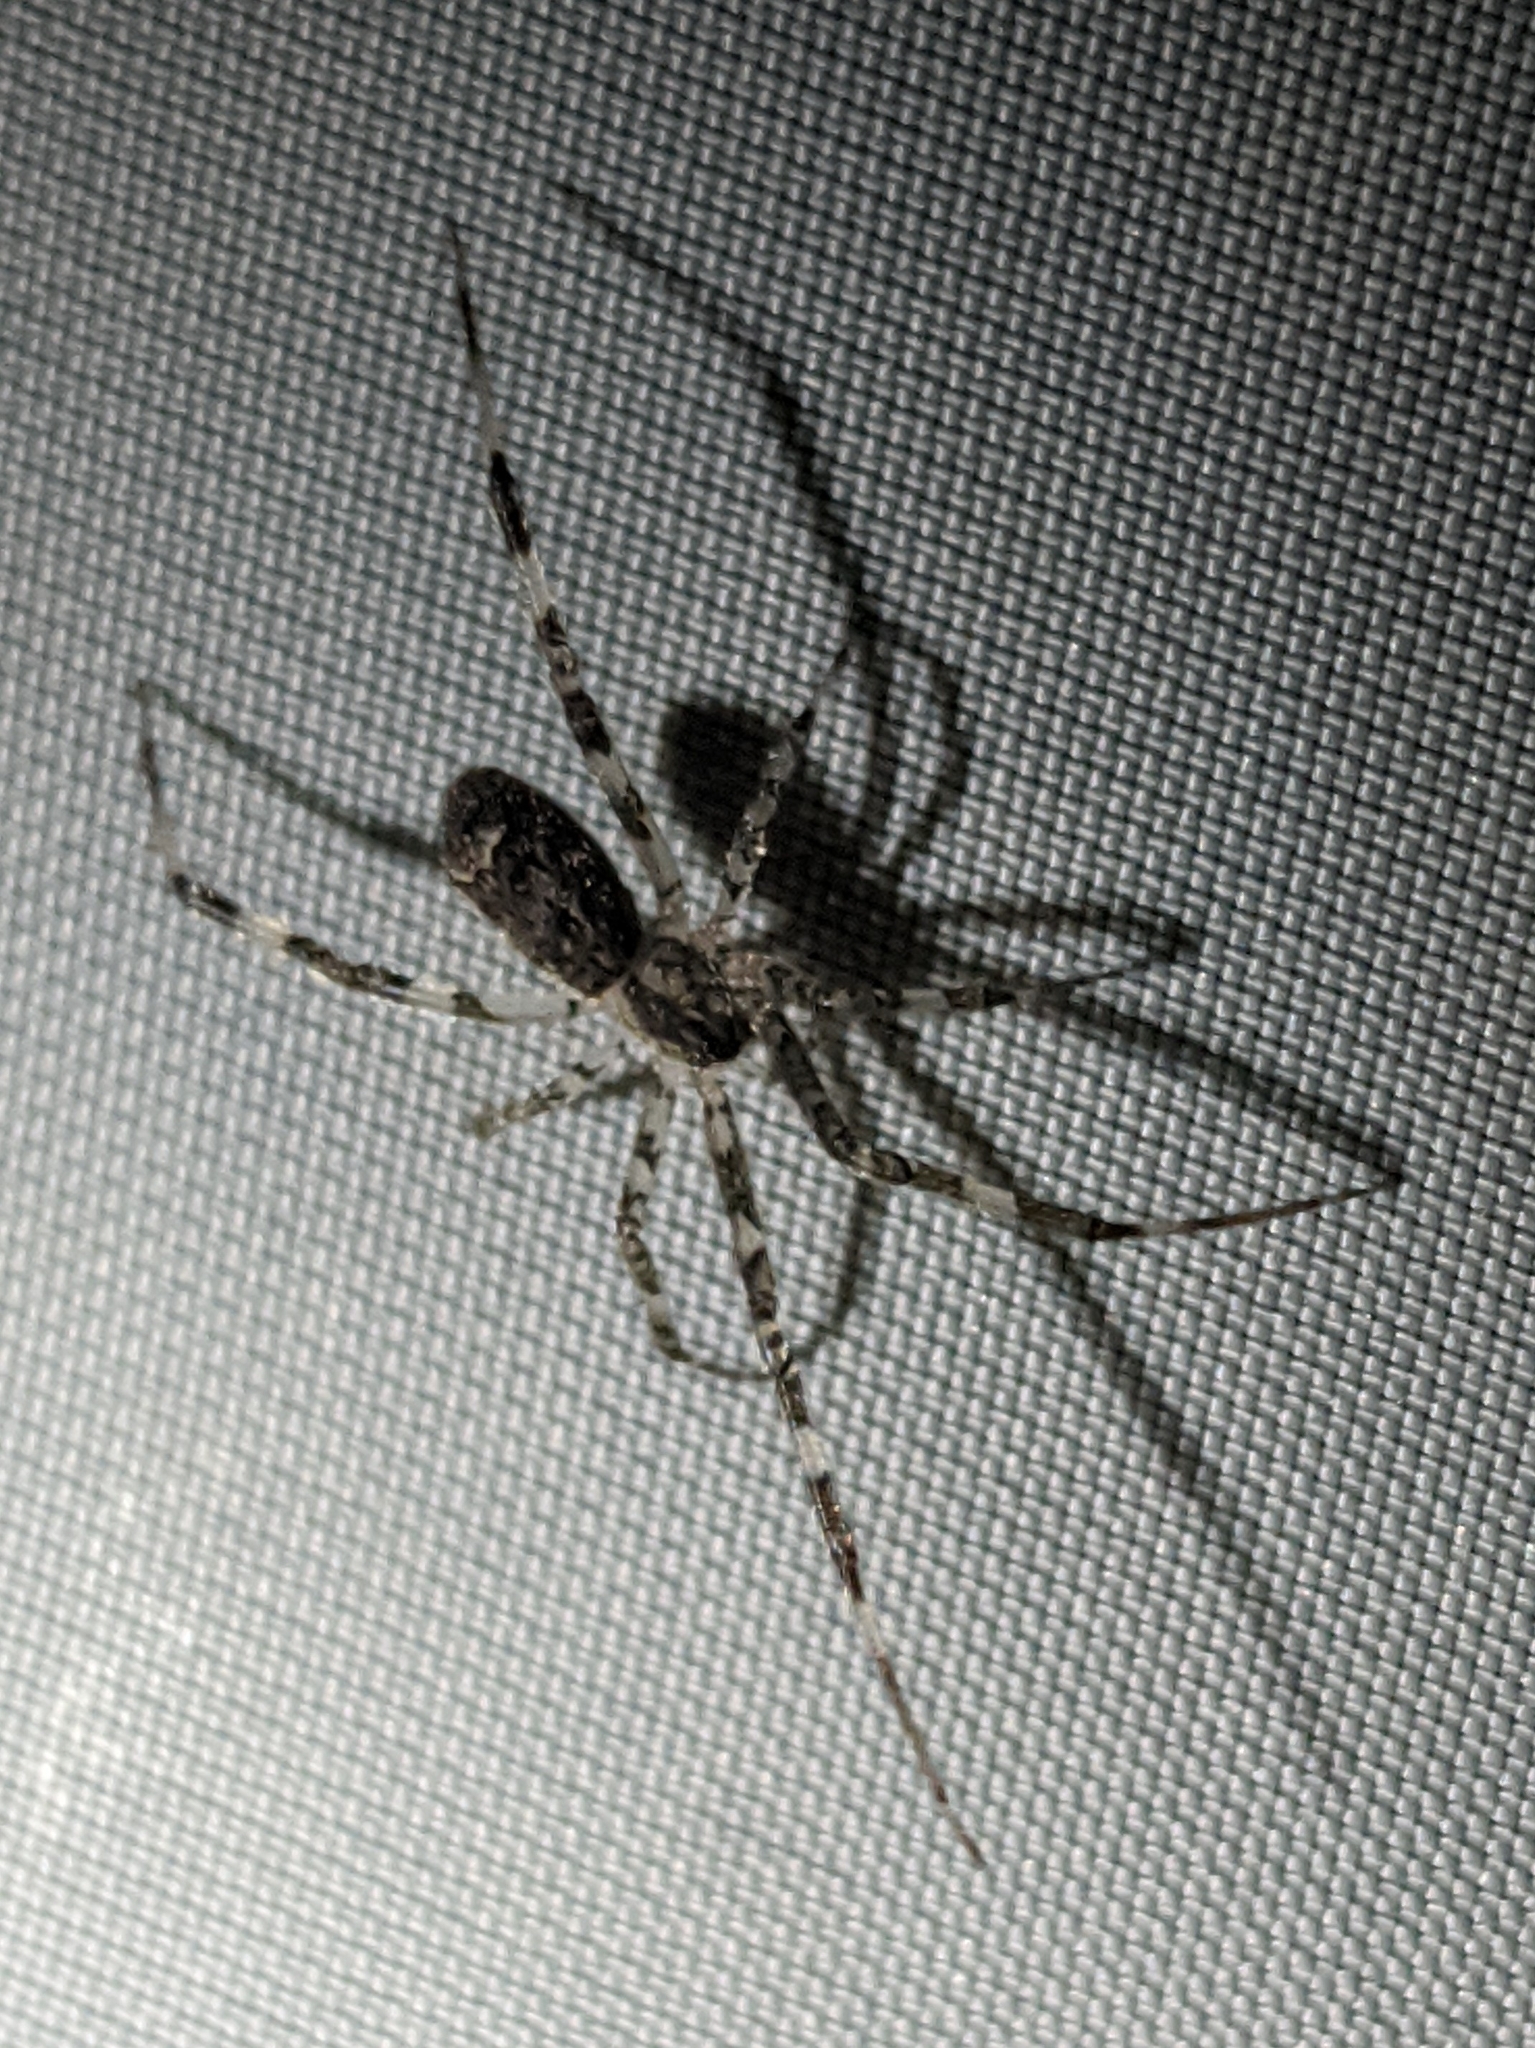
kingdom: Animalia
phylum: Arthropoda
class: Arachnida
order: Araneae
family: Theridiidae
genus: Episinus
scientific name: Episinus maculipes
